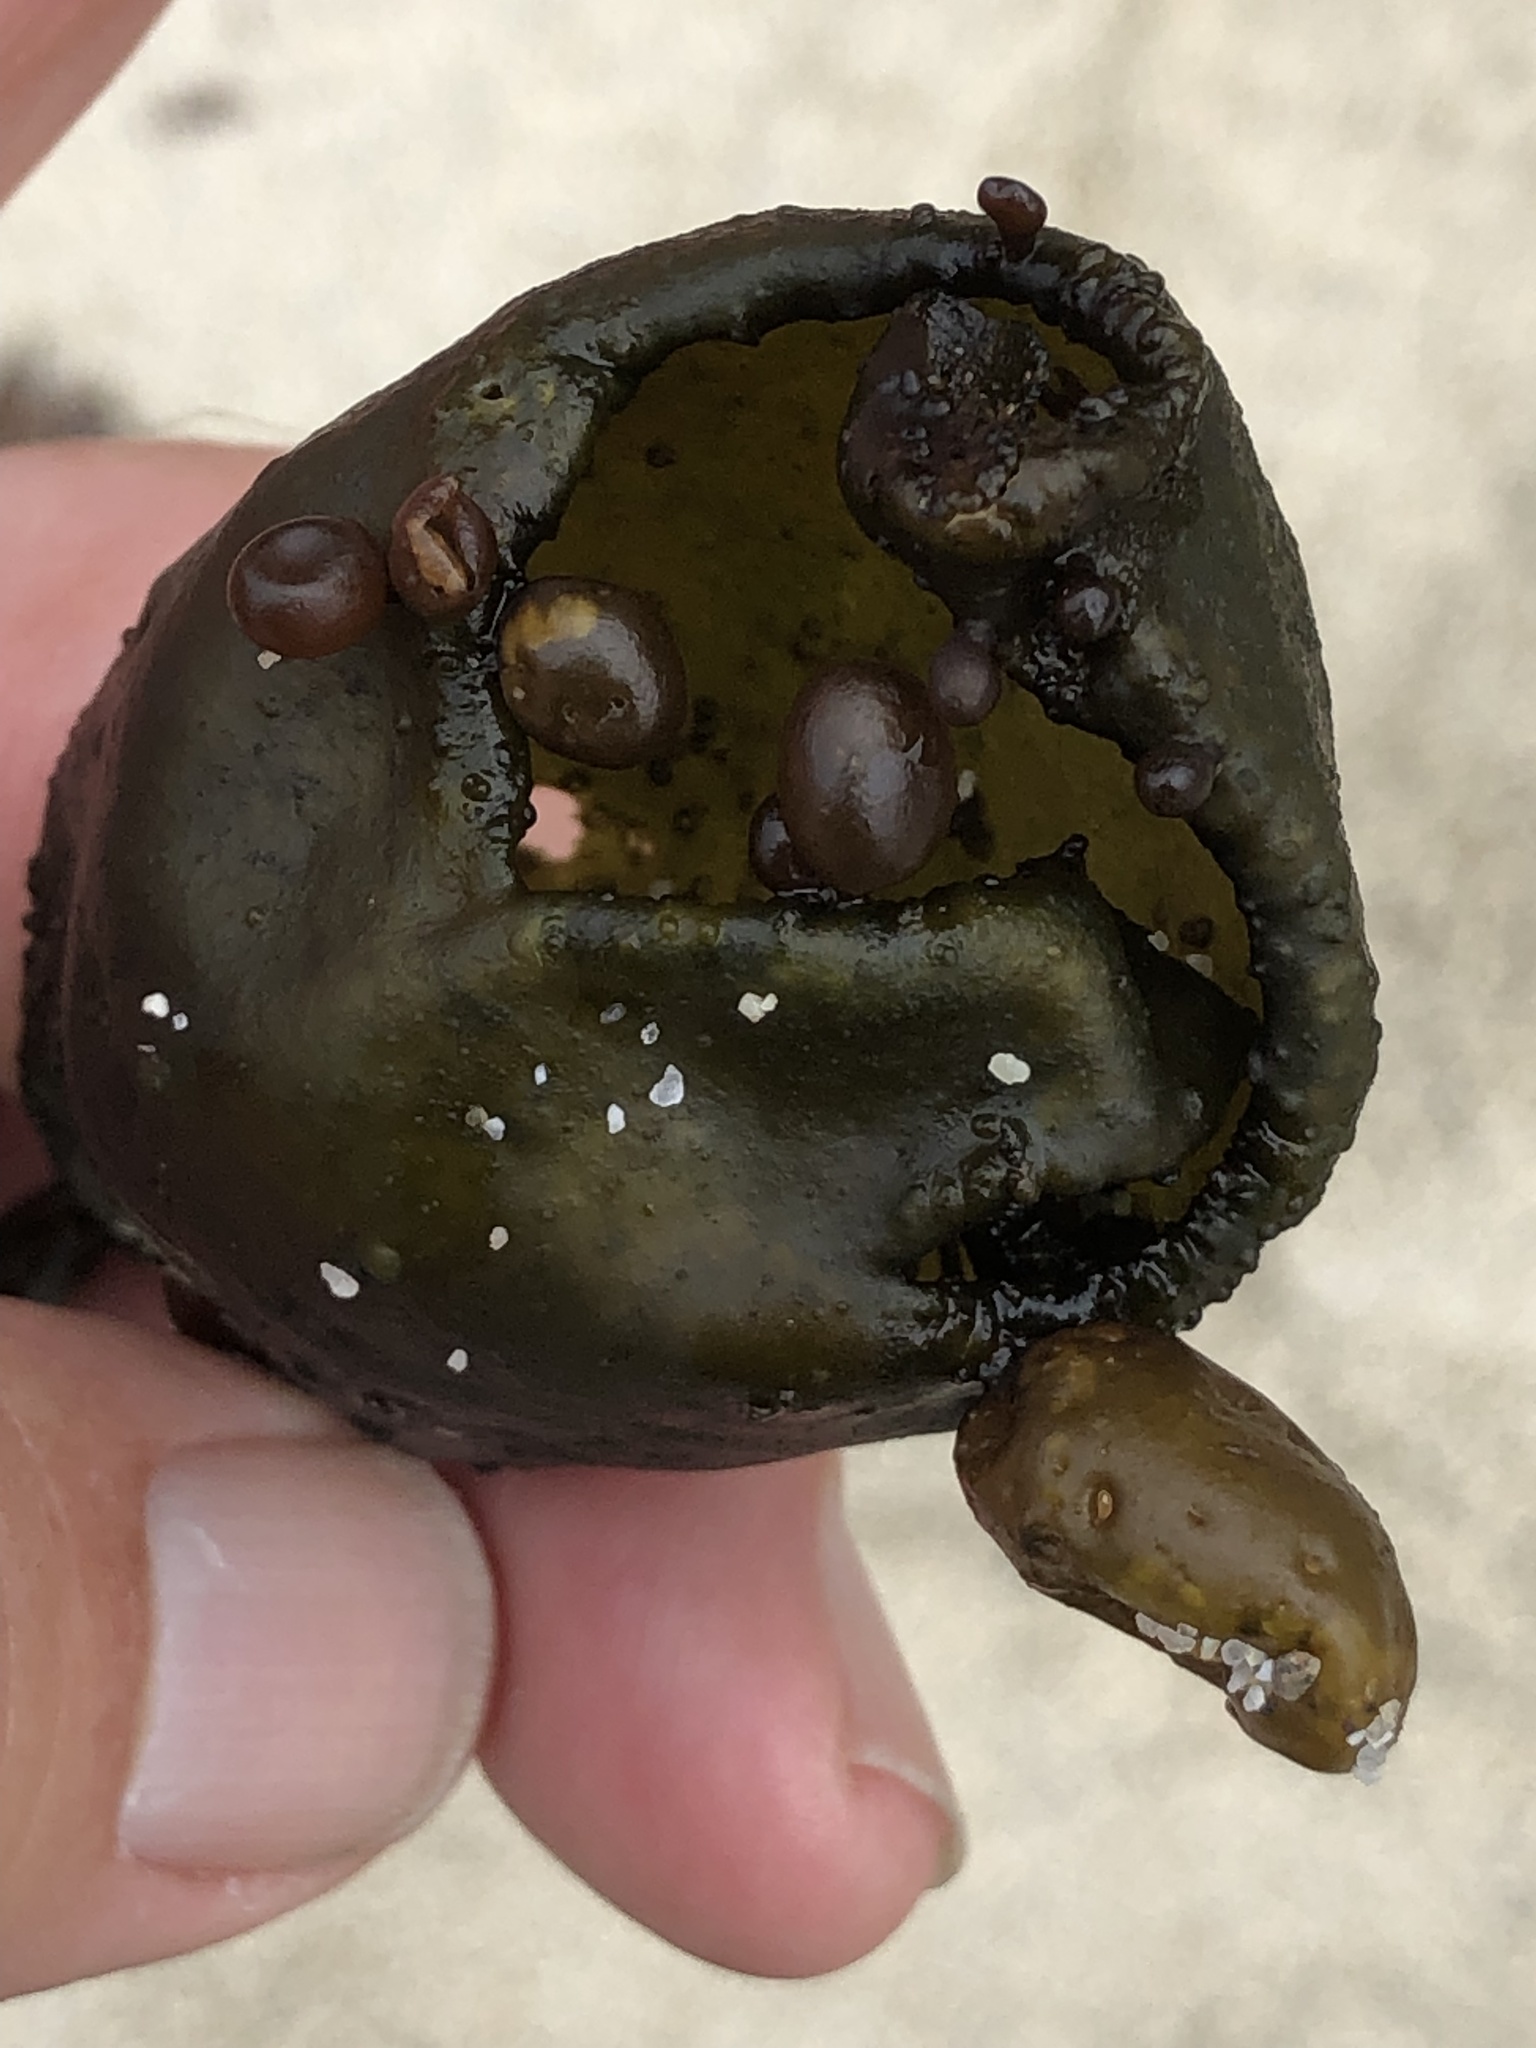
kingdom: Plantae
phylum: Rhodophyta
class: Florideophyceae
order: Palmariales
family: Palmariaceae
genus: Halosaccion
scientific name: Halosaccion glandiforme
